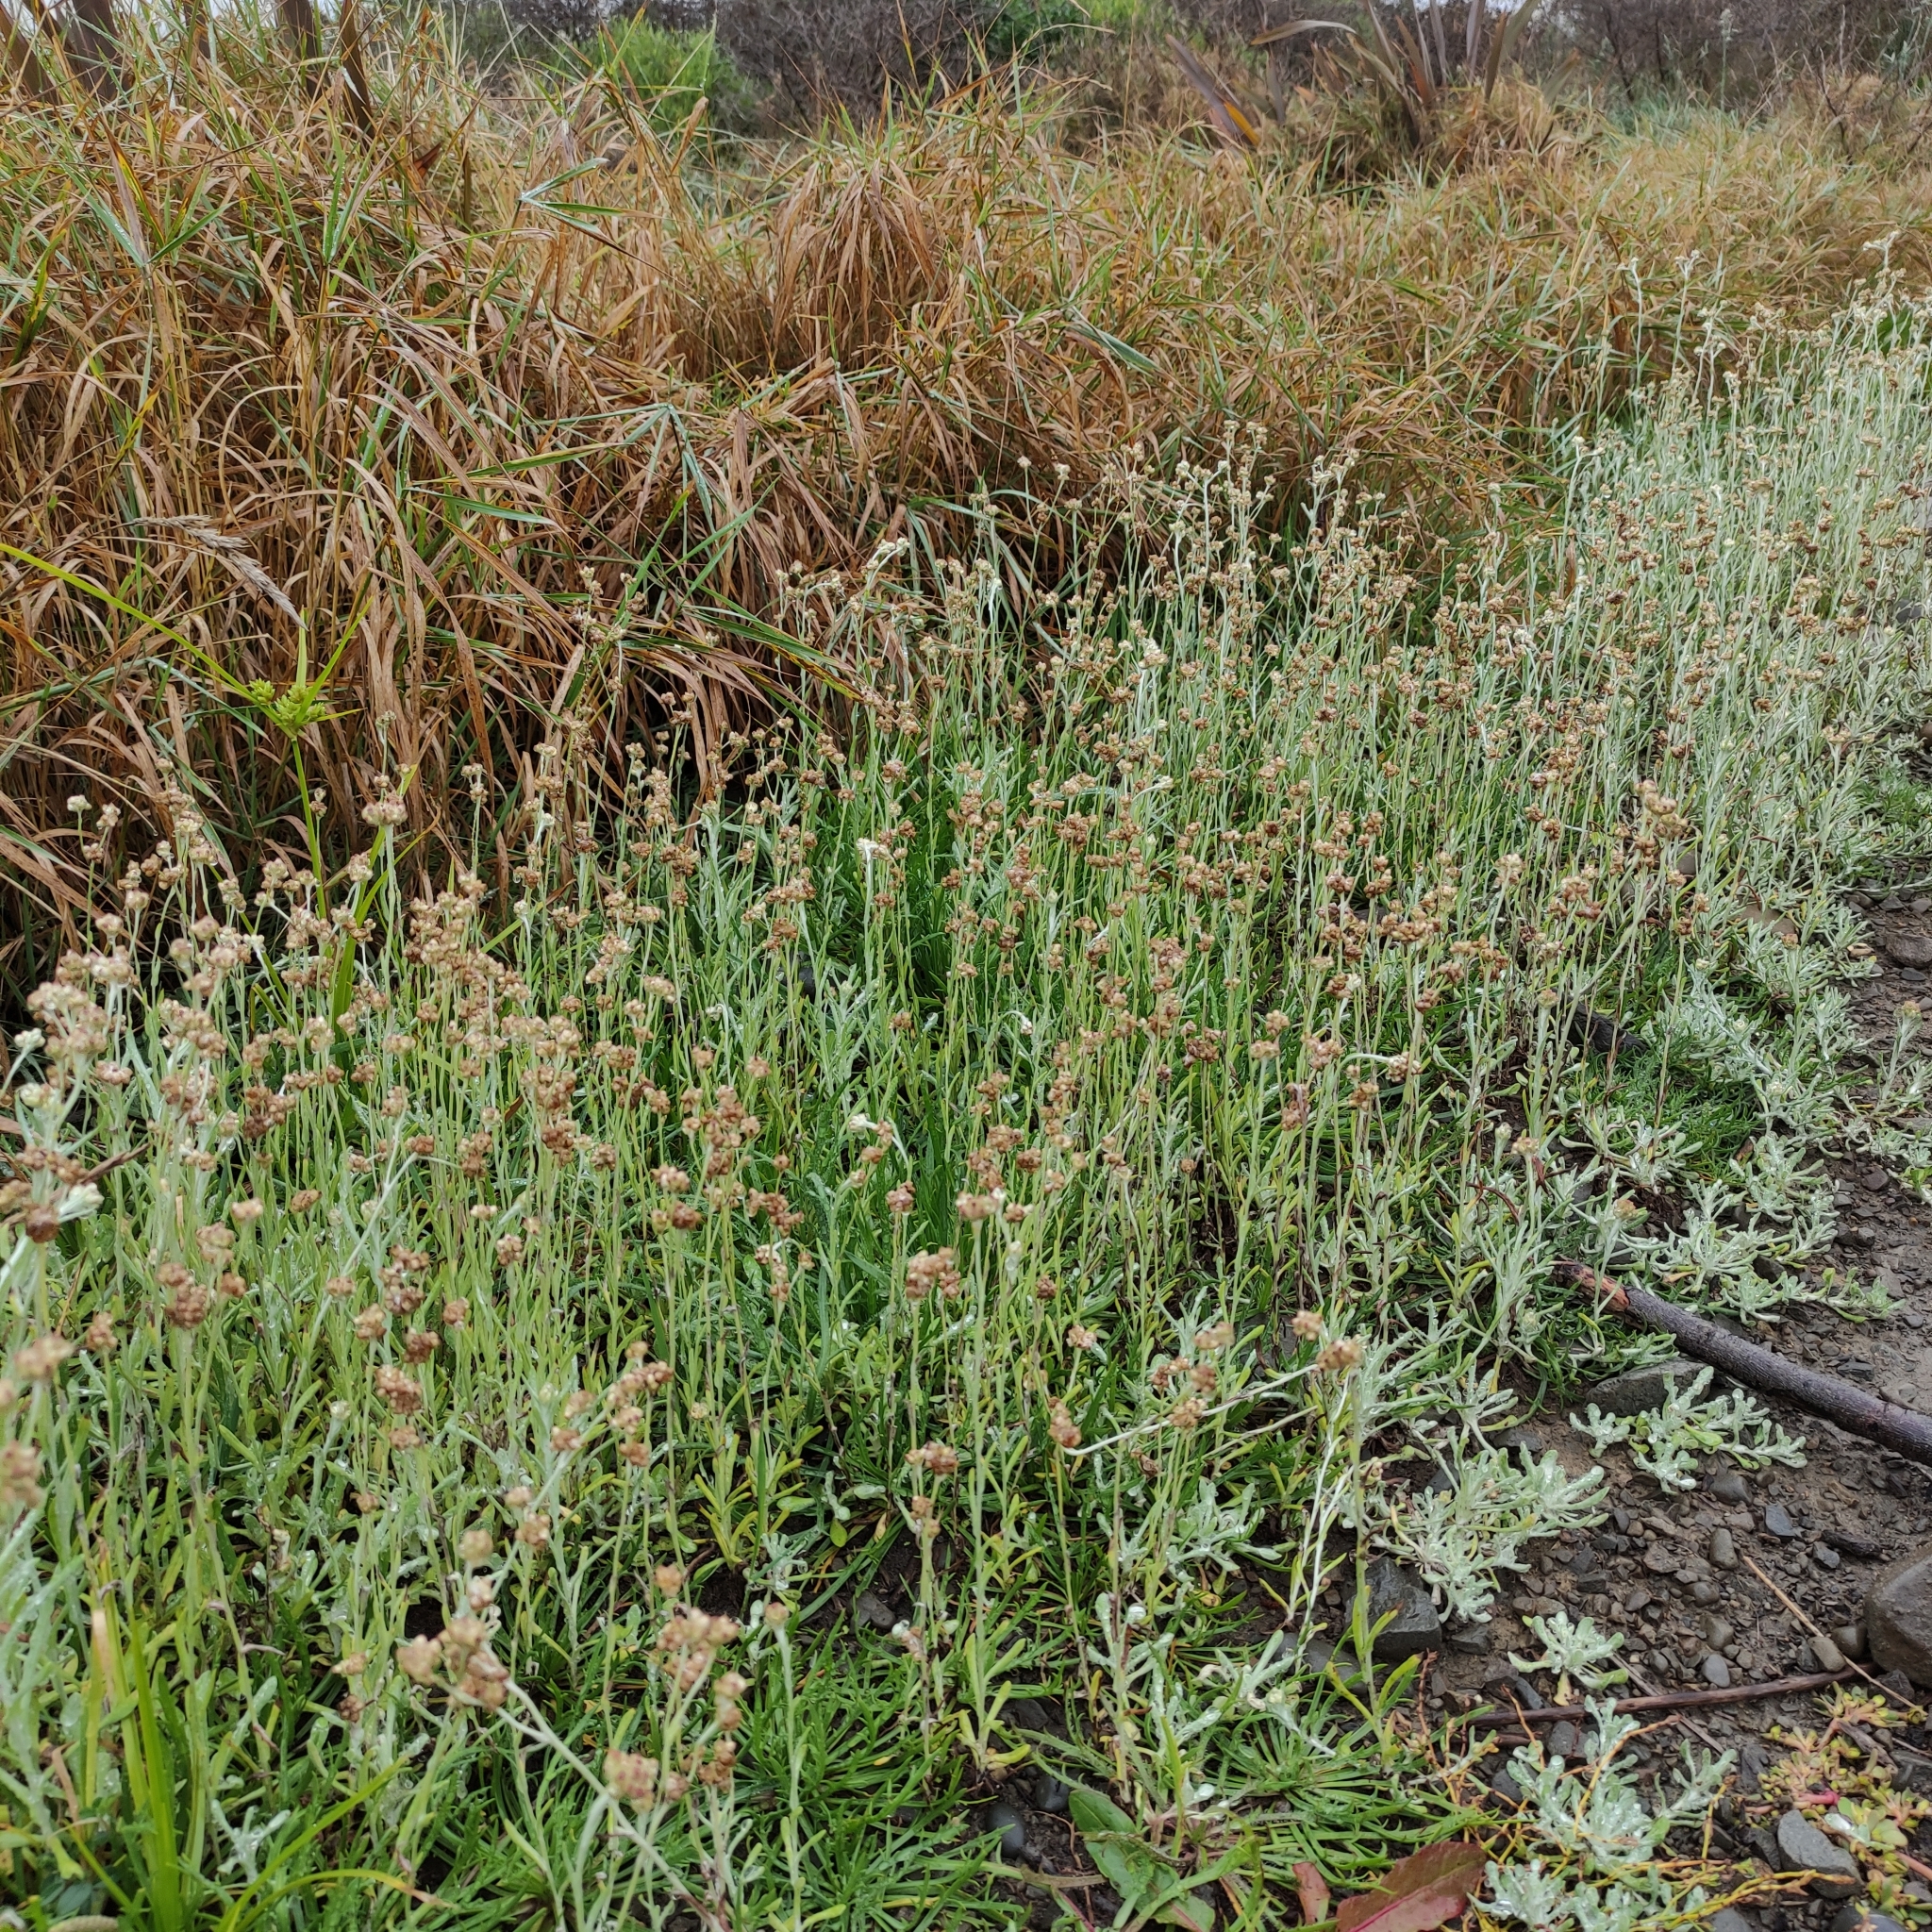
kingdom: Plantae
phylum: Tracheophyta
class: Magnoliopsida
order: Asterales
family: Asteraceae
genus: Helichrysum
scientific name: Helichrysum luteoalbum
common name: Daisy
